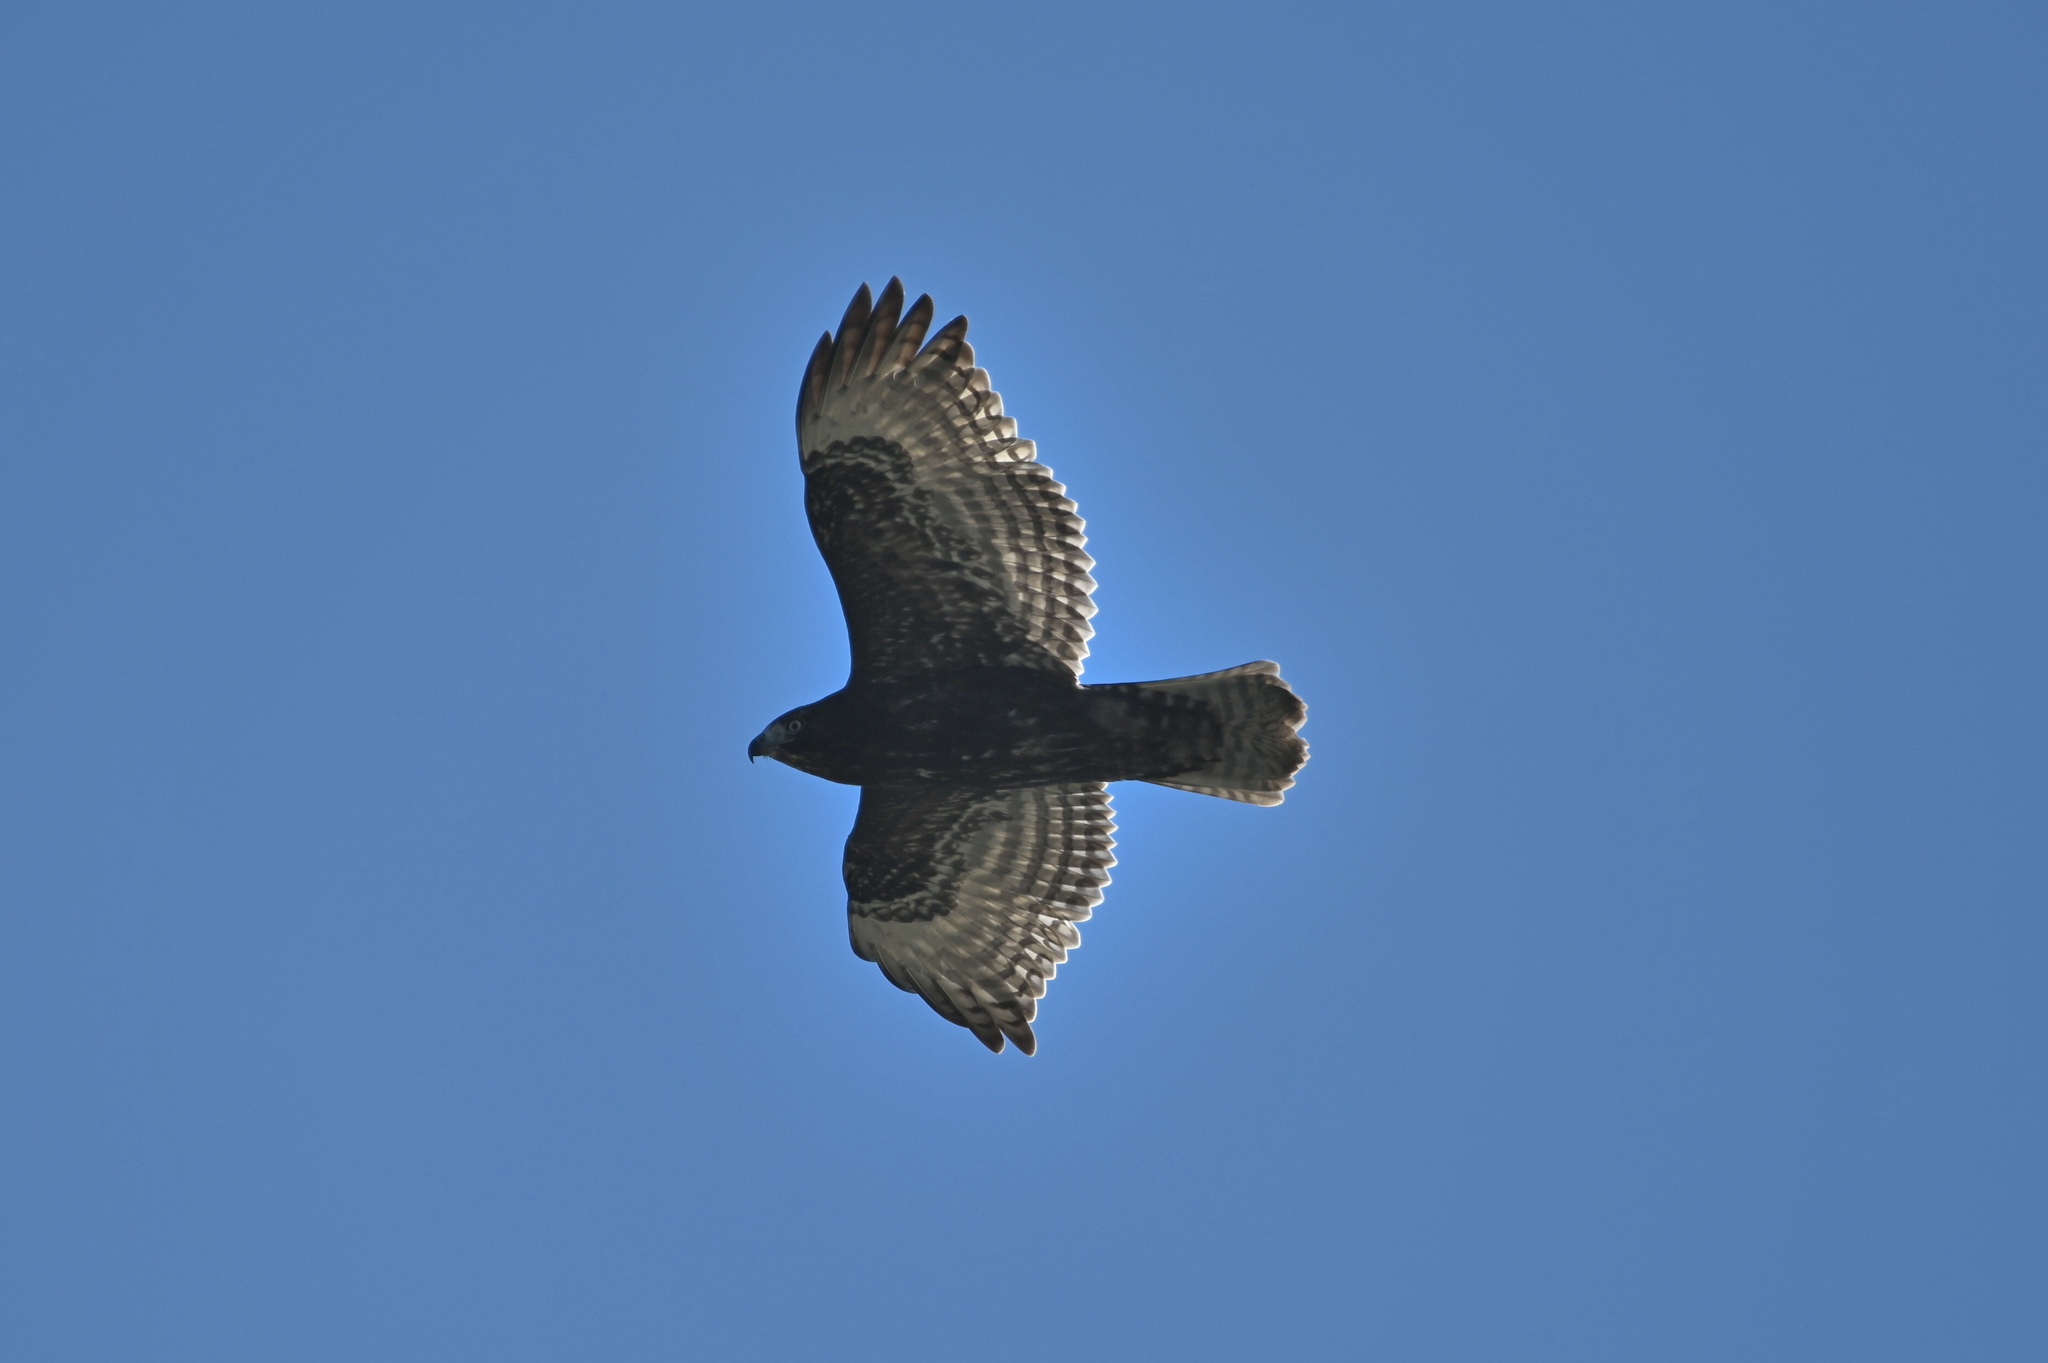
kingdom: Animalia
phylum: Chordata
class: Aves
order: Accipitriformes
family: Accipitridae
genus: Buteo
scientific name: Buteo jamaicensis
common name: Red-tailed hawk
